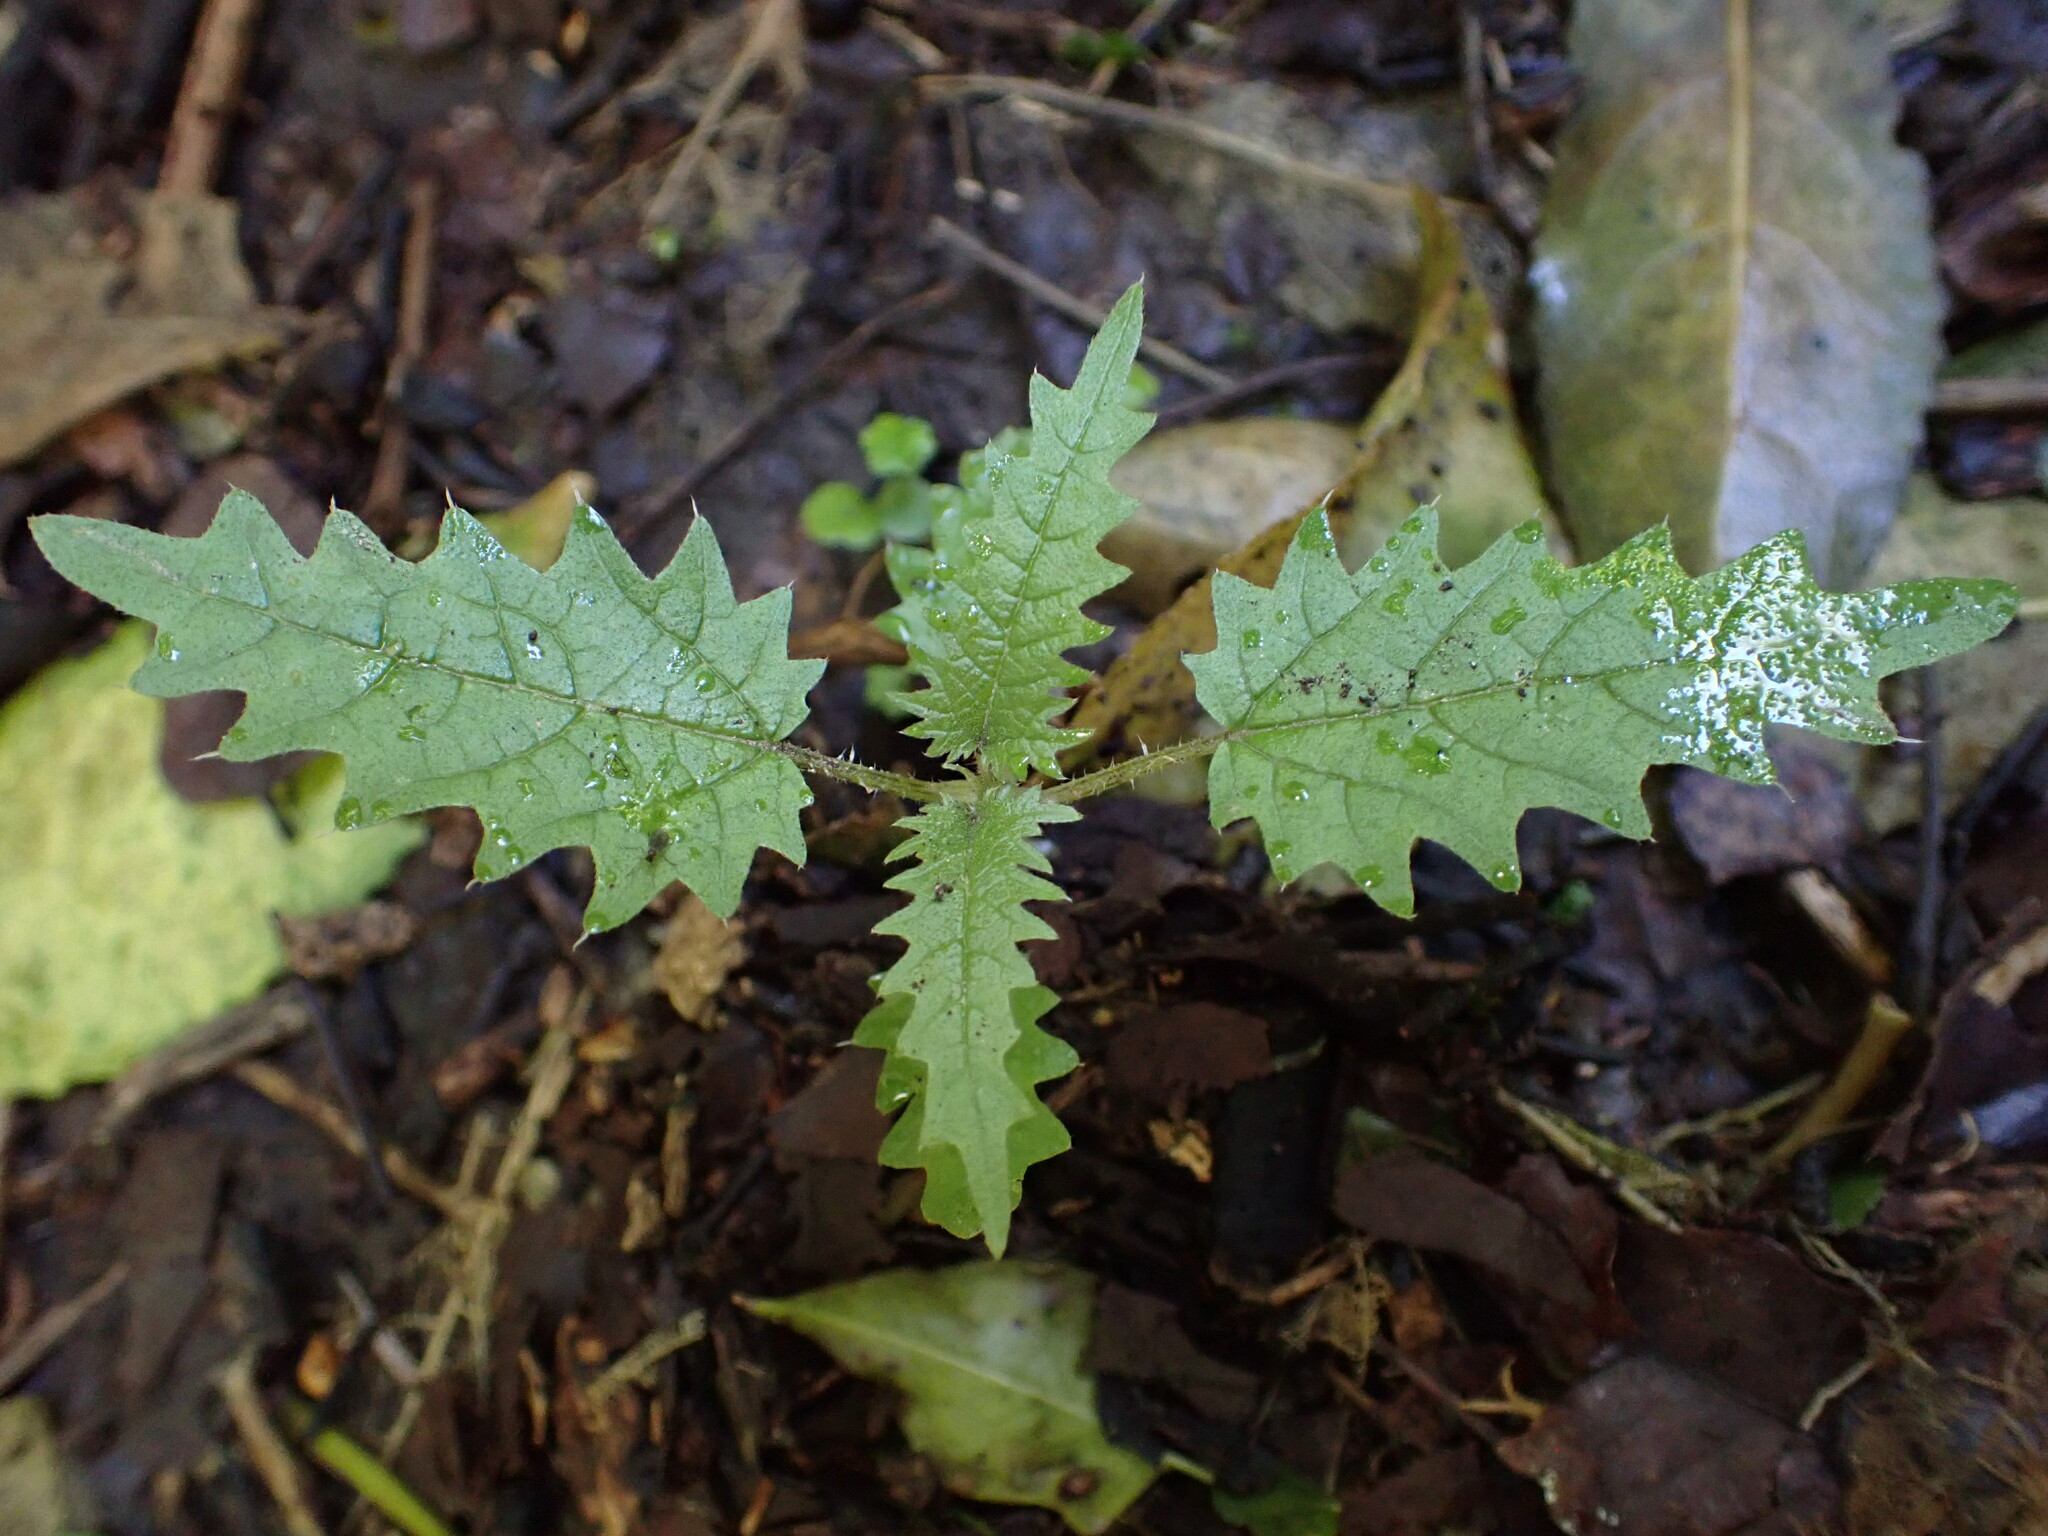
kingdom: Plantae
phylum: Tracheophyta
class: Magnoliopsida
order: Rosales
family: Urticaceae
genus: Urtica
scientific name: Urtica ferox
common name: Tree nettle
